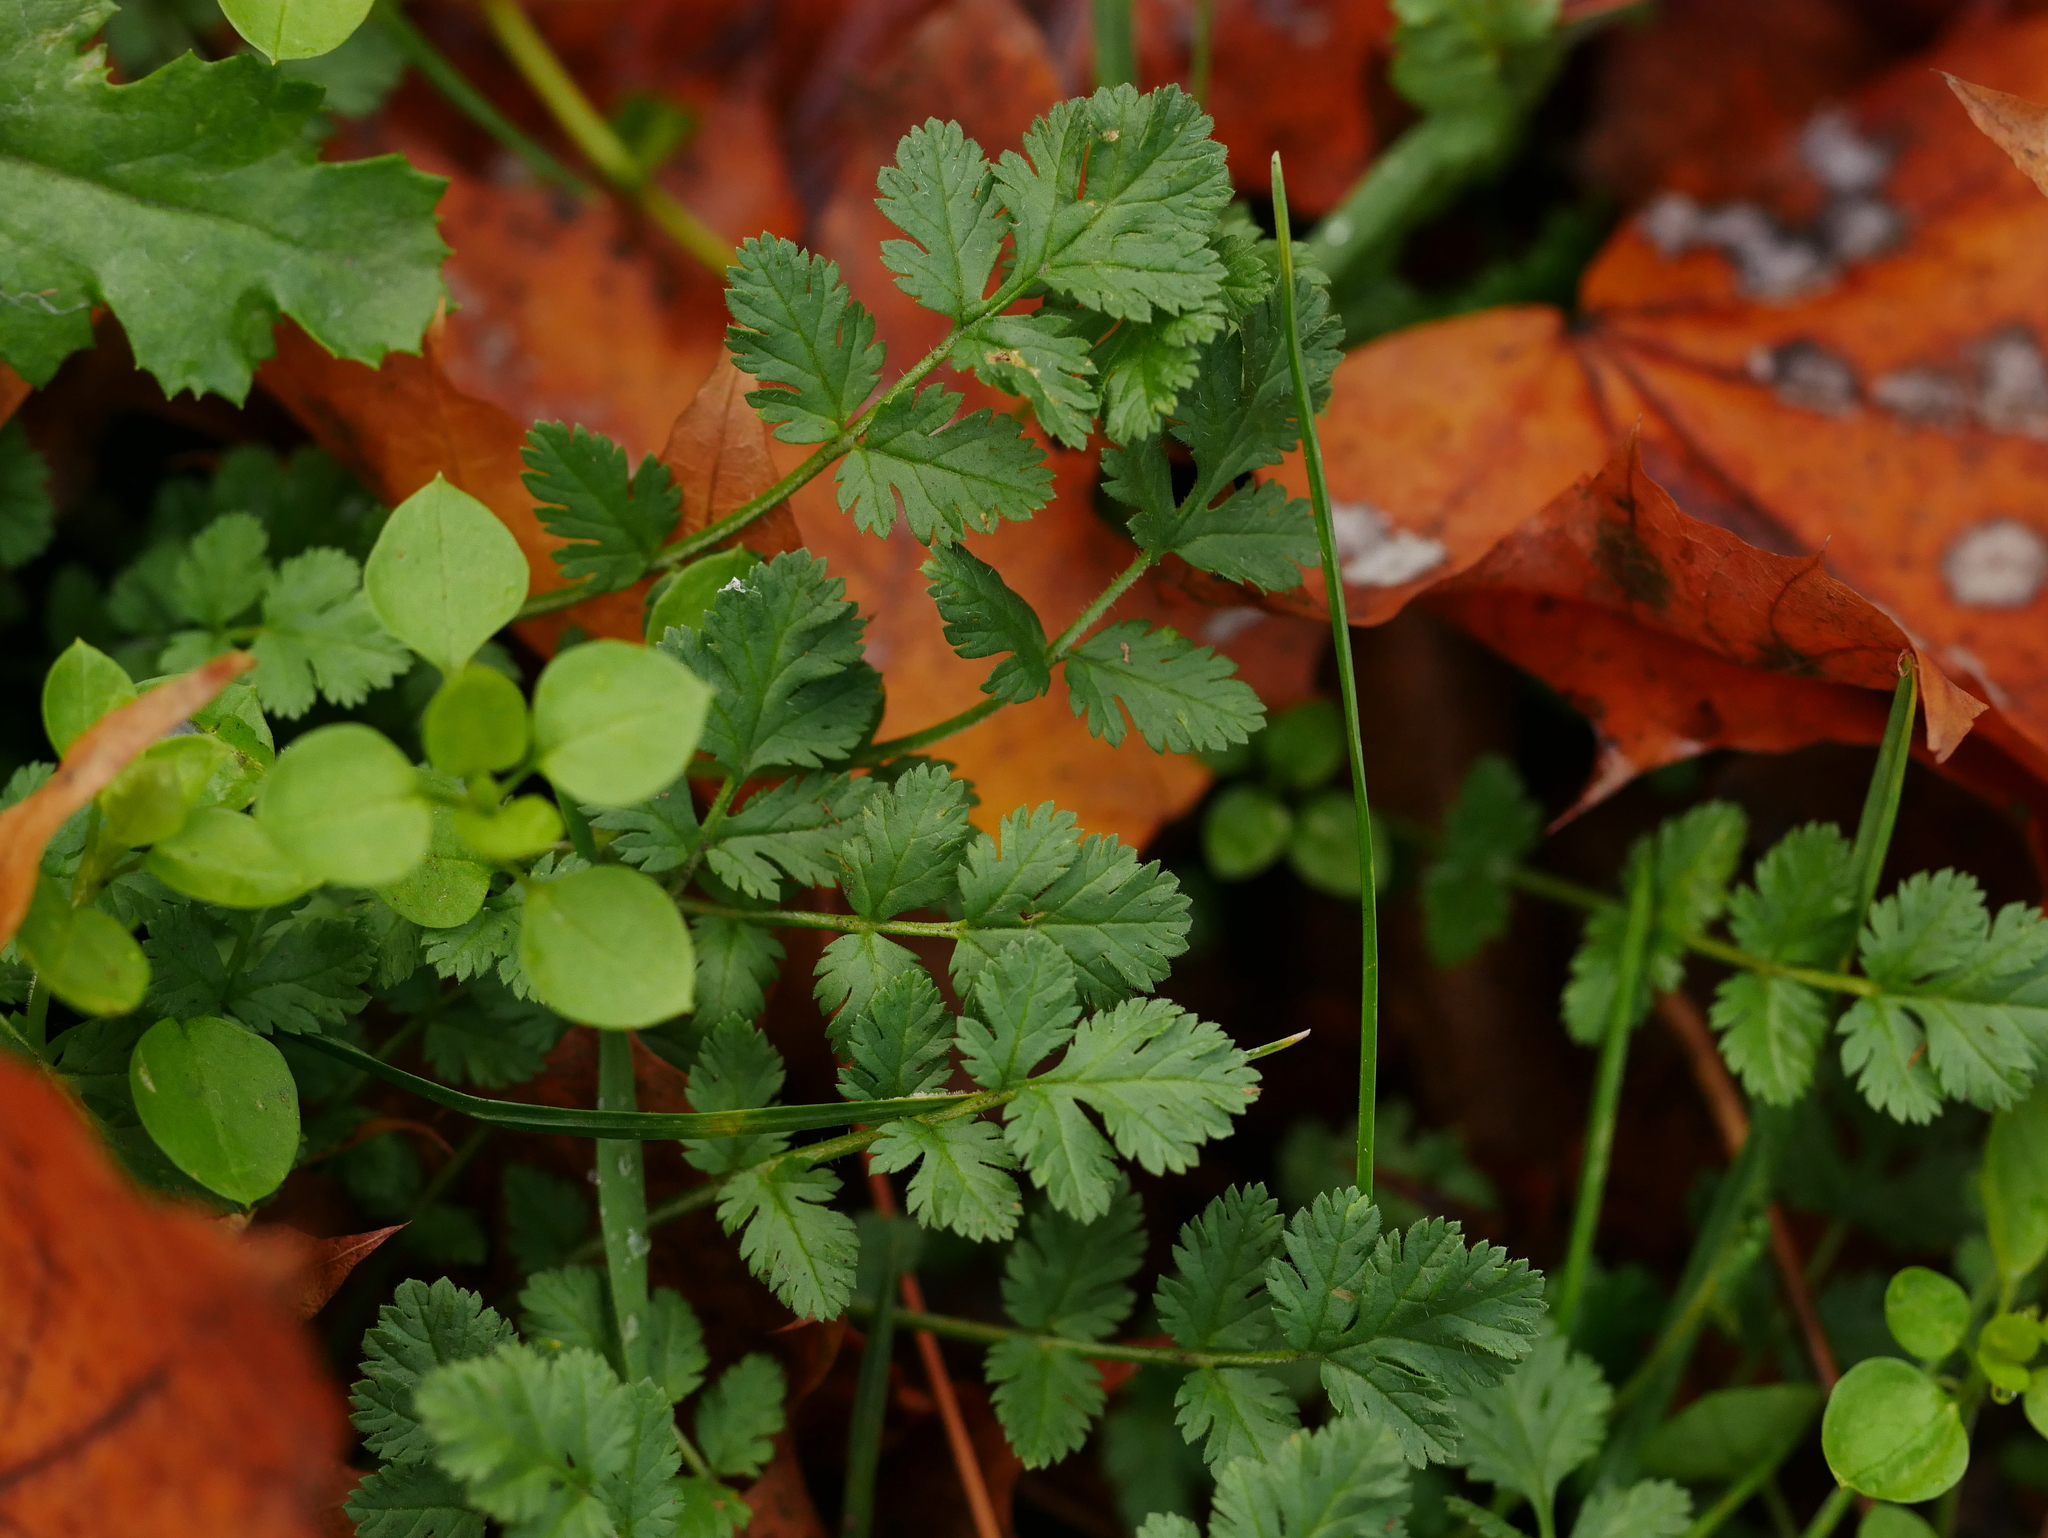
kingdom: Plantae
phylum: Tracheophyta
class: Magnoliopsida
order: Geraniales
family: Geraniaceae
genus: Erodium
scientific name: Erodium cicutarium
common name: Common stork's-bill
